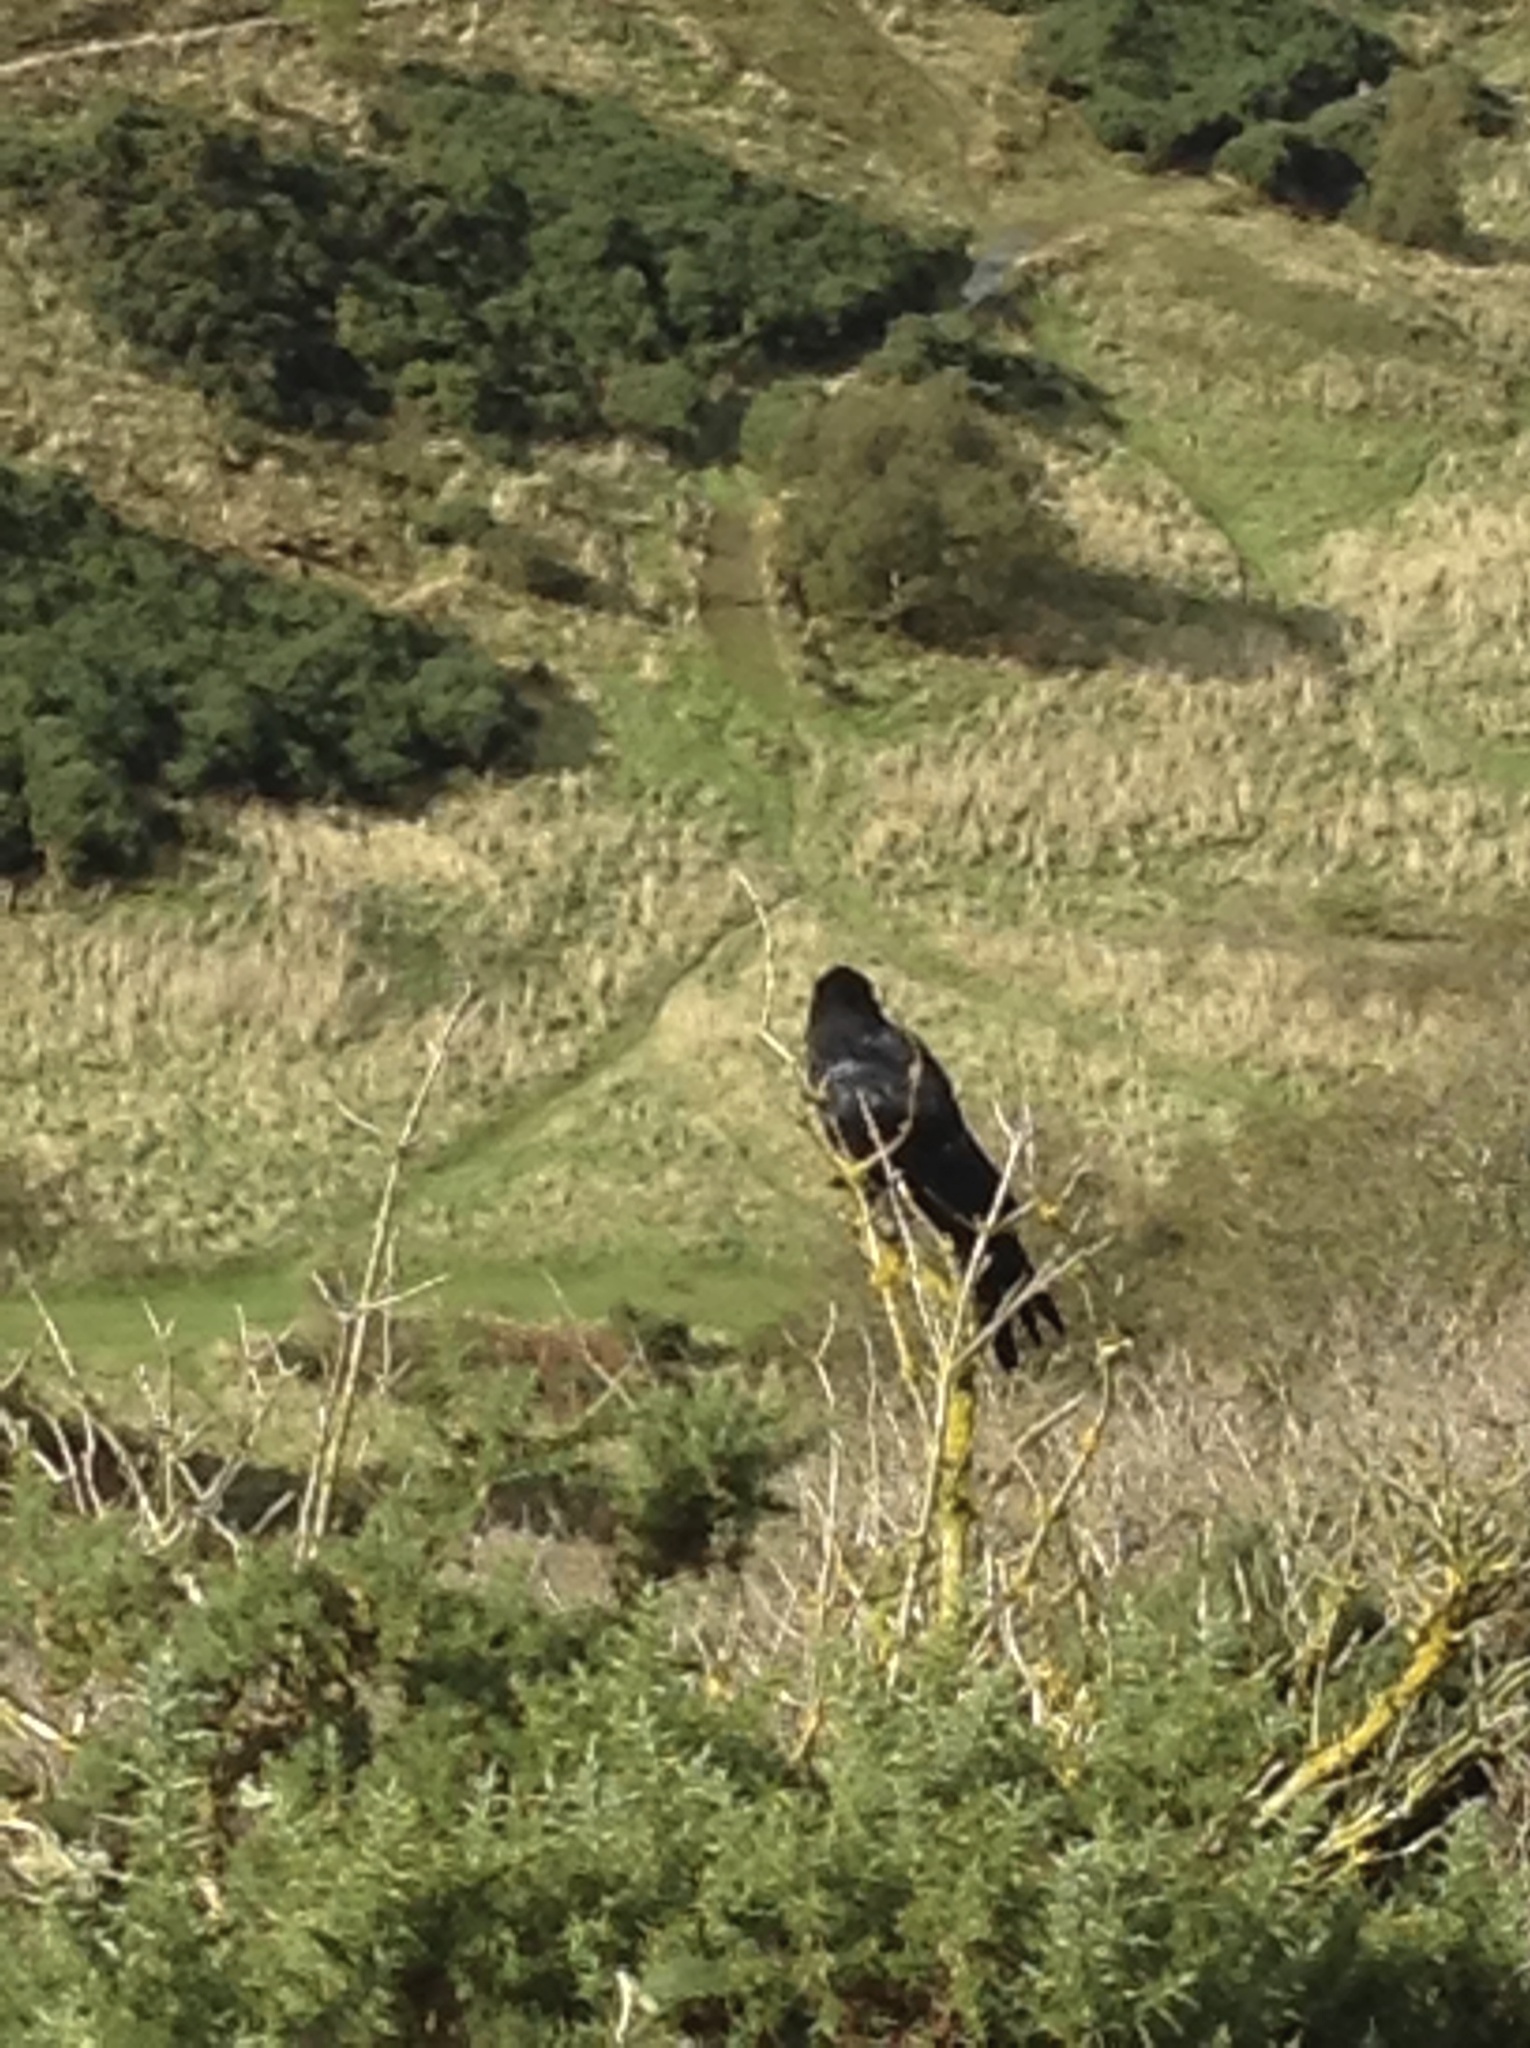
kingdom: Animalia
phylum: Chordata
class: Aves
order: Passeriformes
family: Corvidae
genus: Corvus
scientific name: Corvus corax
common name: Common raven
